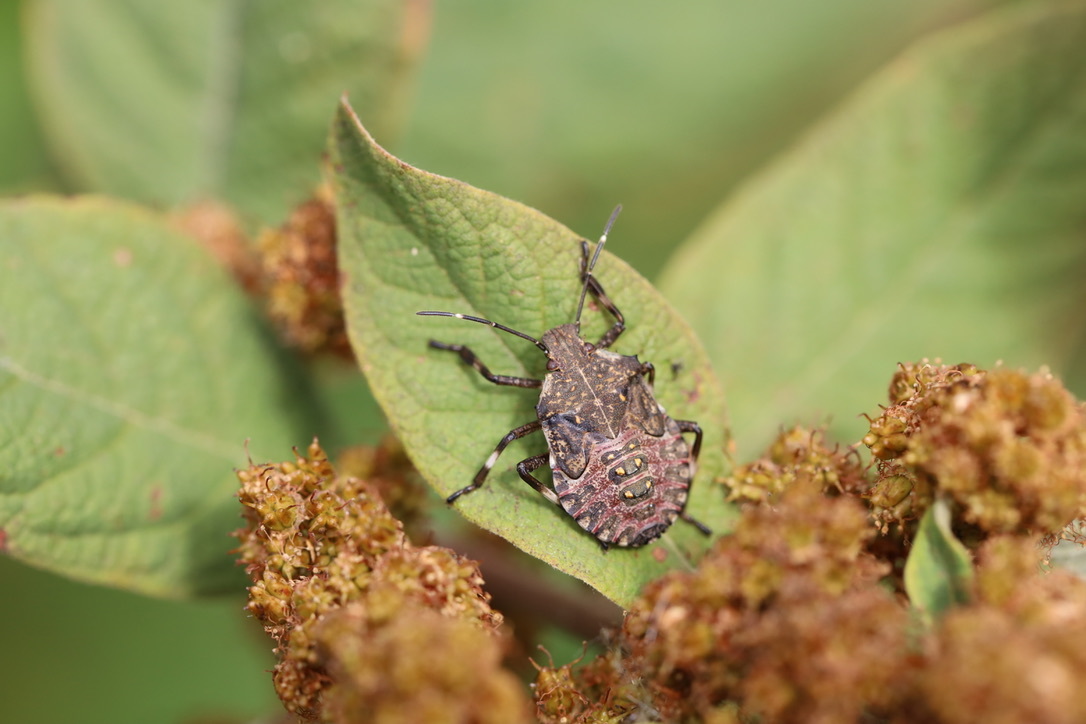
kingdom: Animalia
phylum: Arthropoda
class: Insecta
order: Hemiptera
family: Pentatomidae
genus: Halyomorpha
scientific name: Halyomorpha halys
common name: Brown marmorated stink bug
